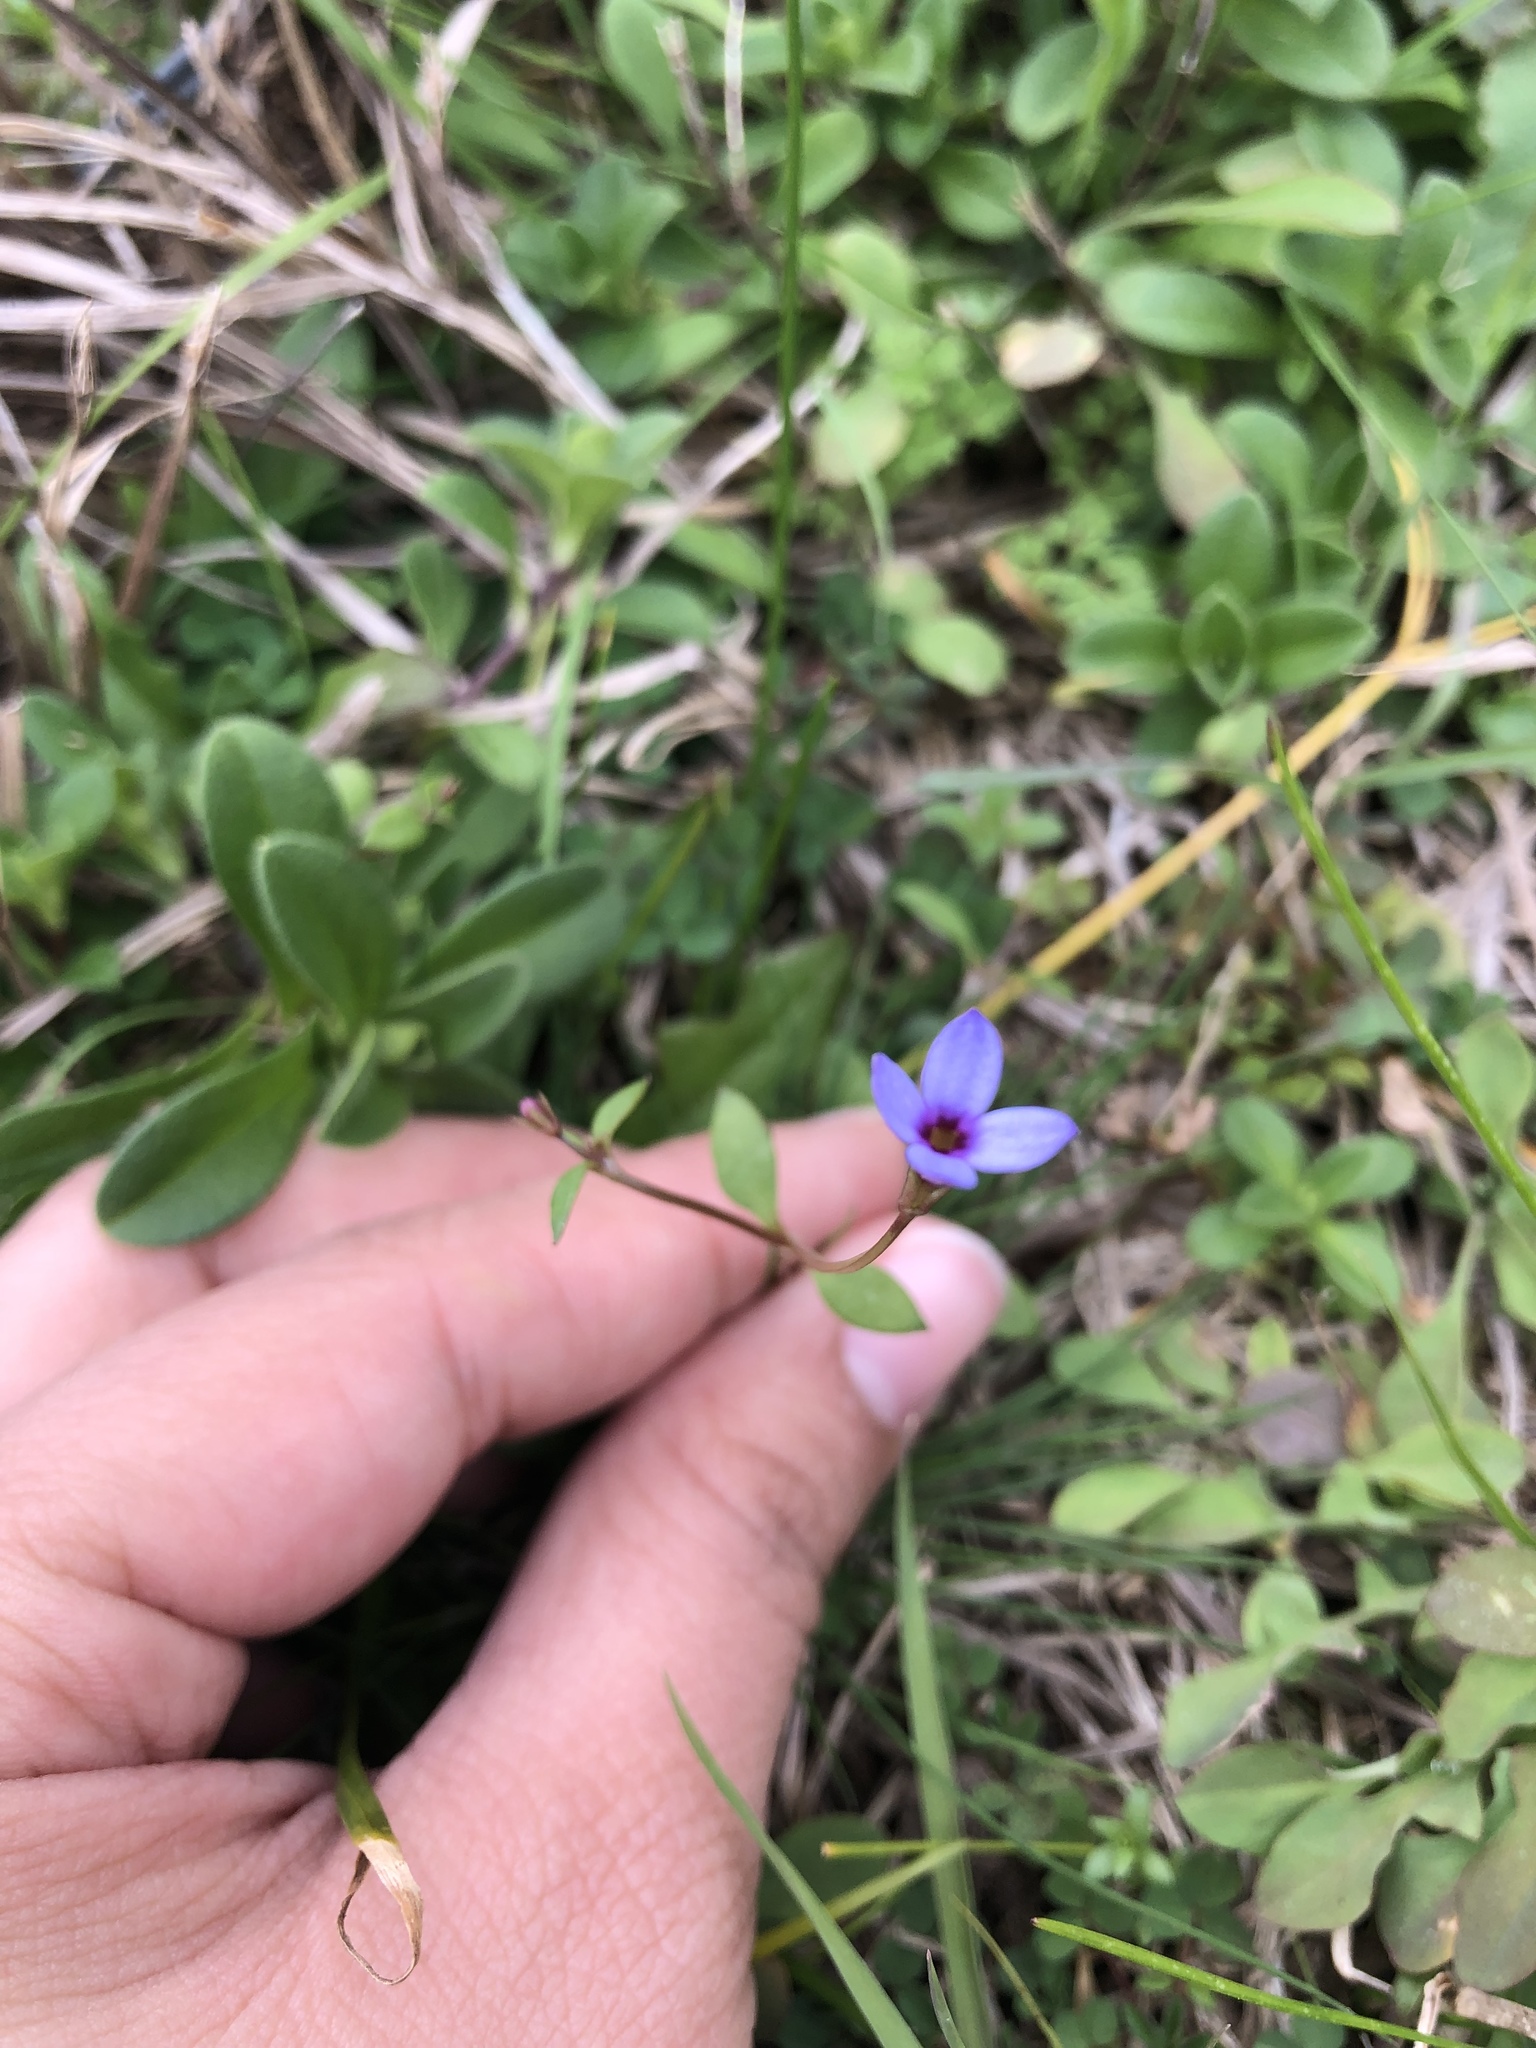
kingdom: Plantae
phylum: Tracheophyta
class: Magnoliopsida
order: Gentianales
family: Rubiaceae
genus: Houstonia
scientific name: Houstonia pusilla
